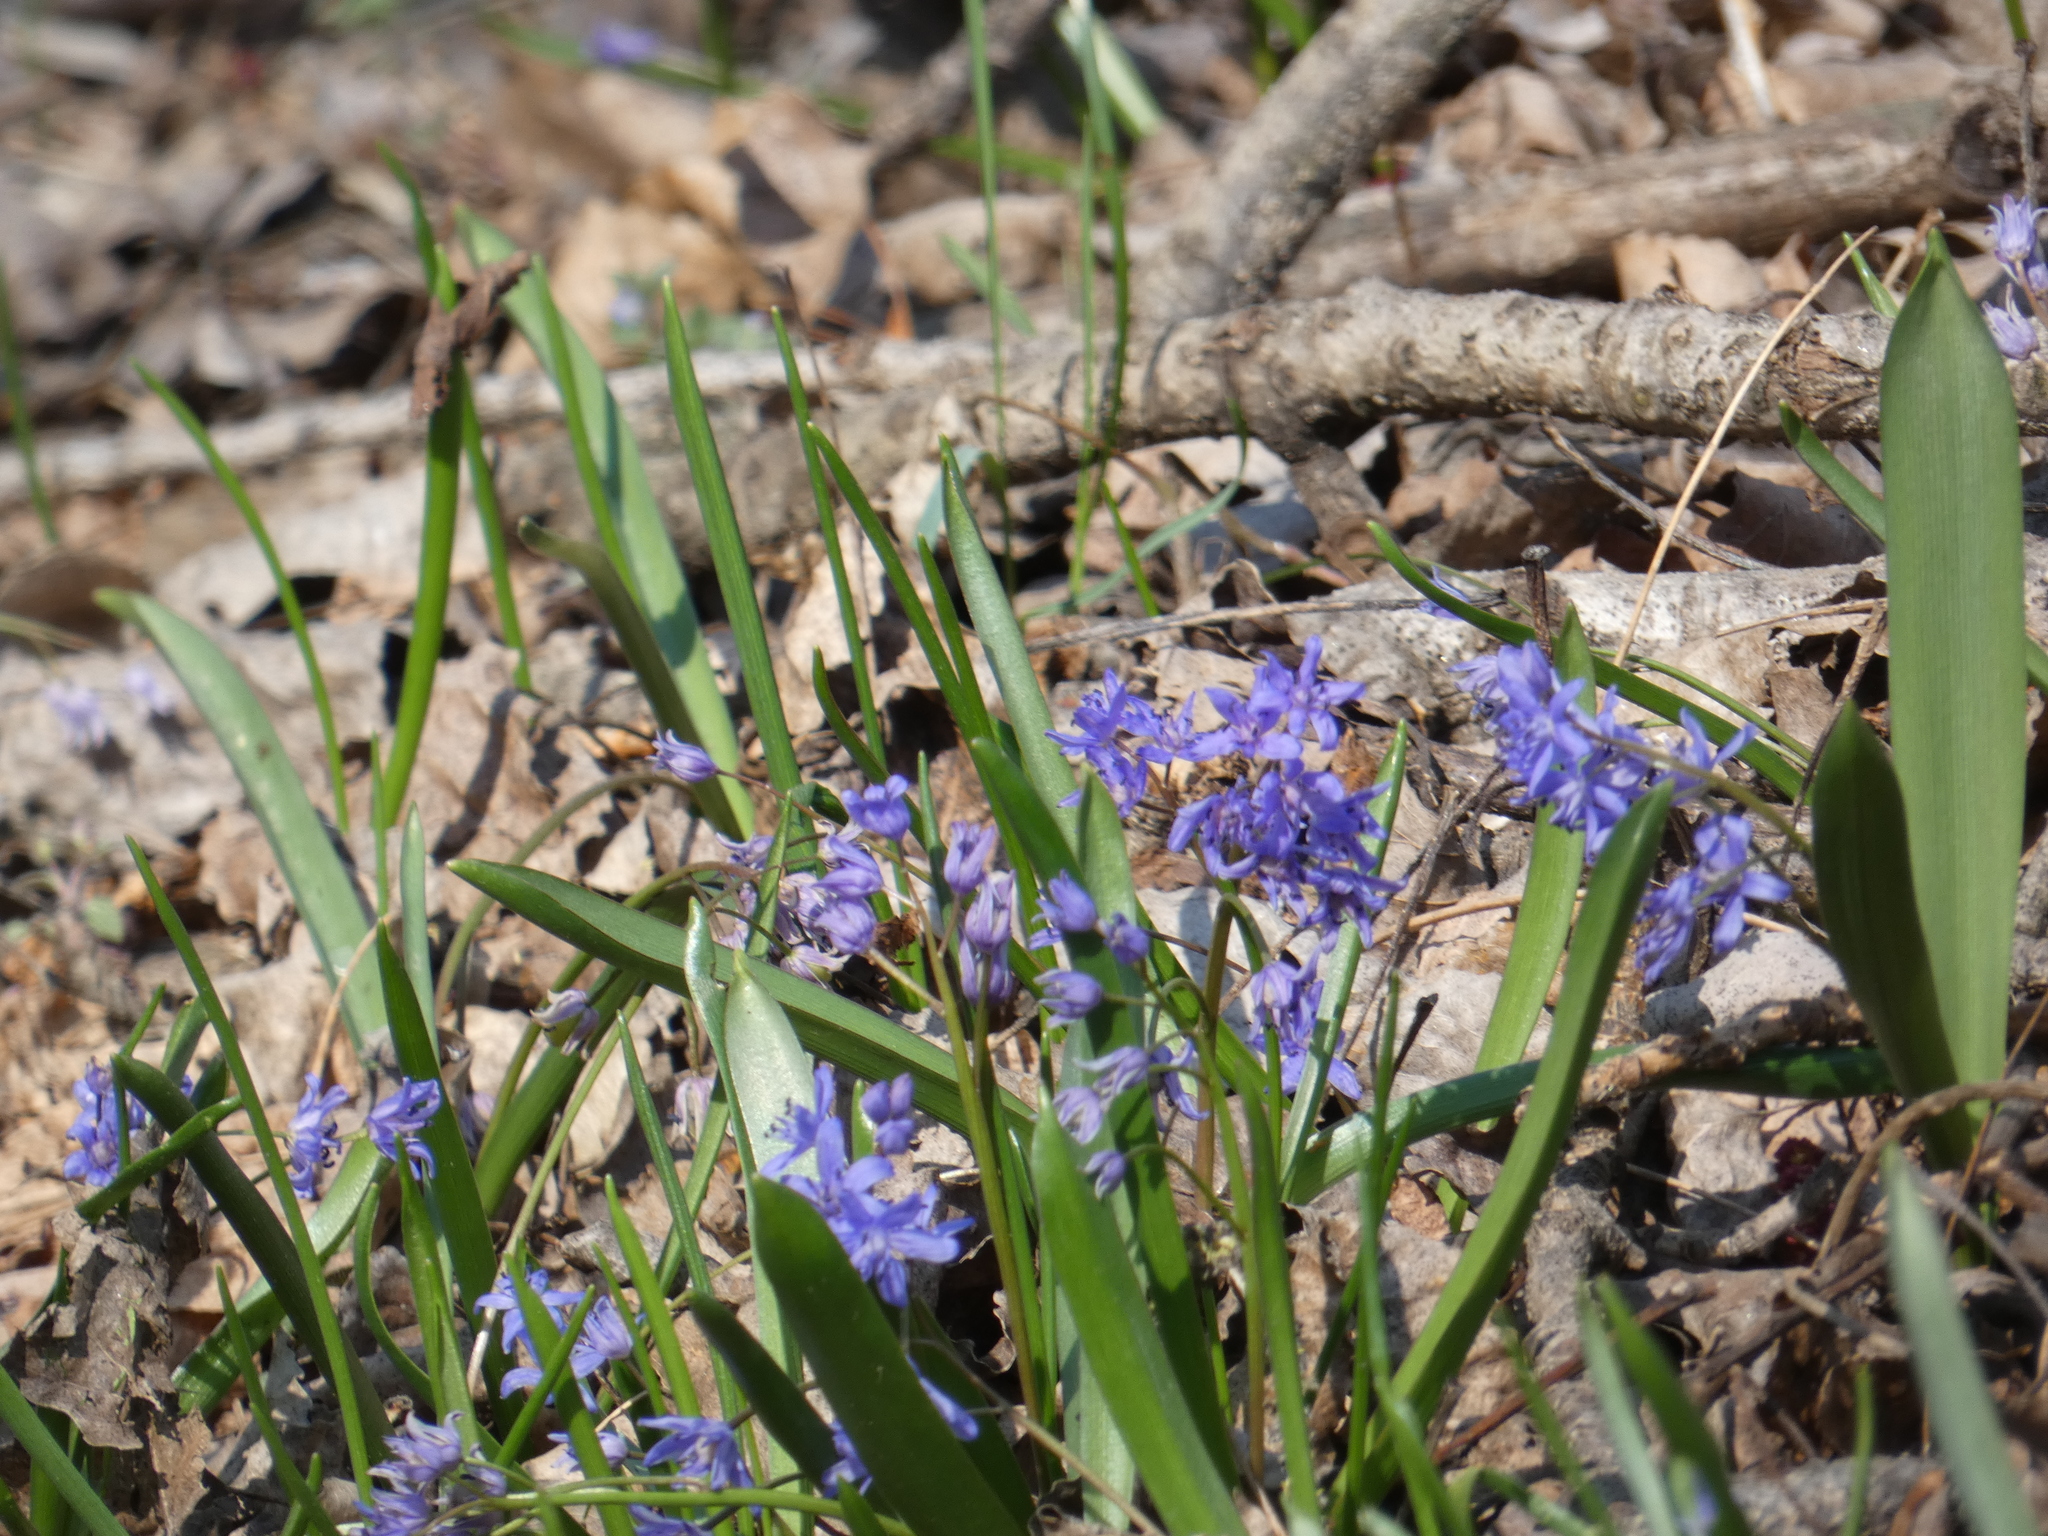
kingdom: Plantae
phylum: Tracheophyta
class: Liliopsida
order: Asparagales
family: Asparagaceae
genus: Scilla
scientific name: Scilla bifolia
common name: Alpine squill
